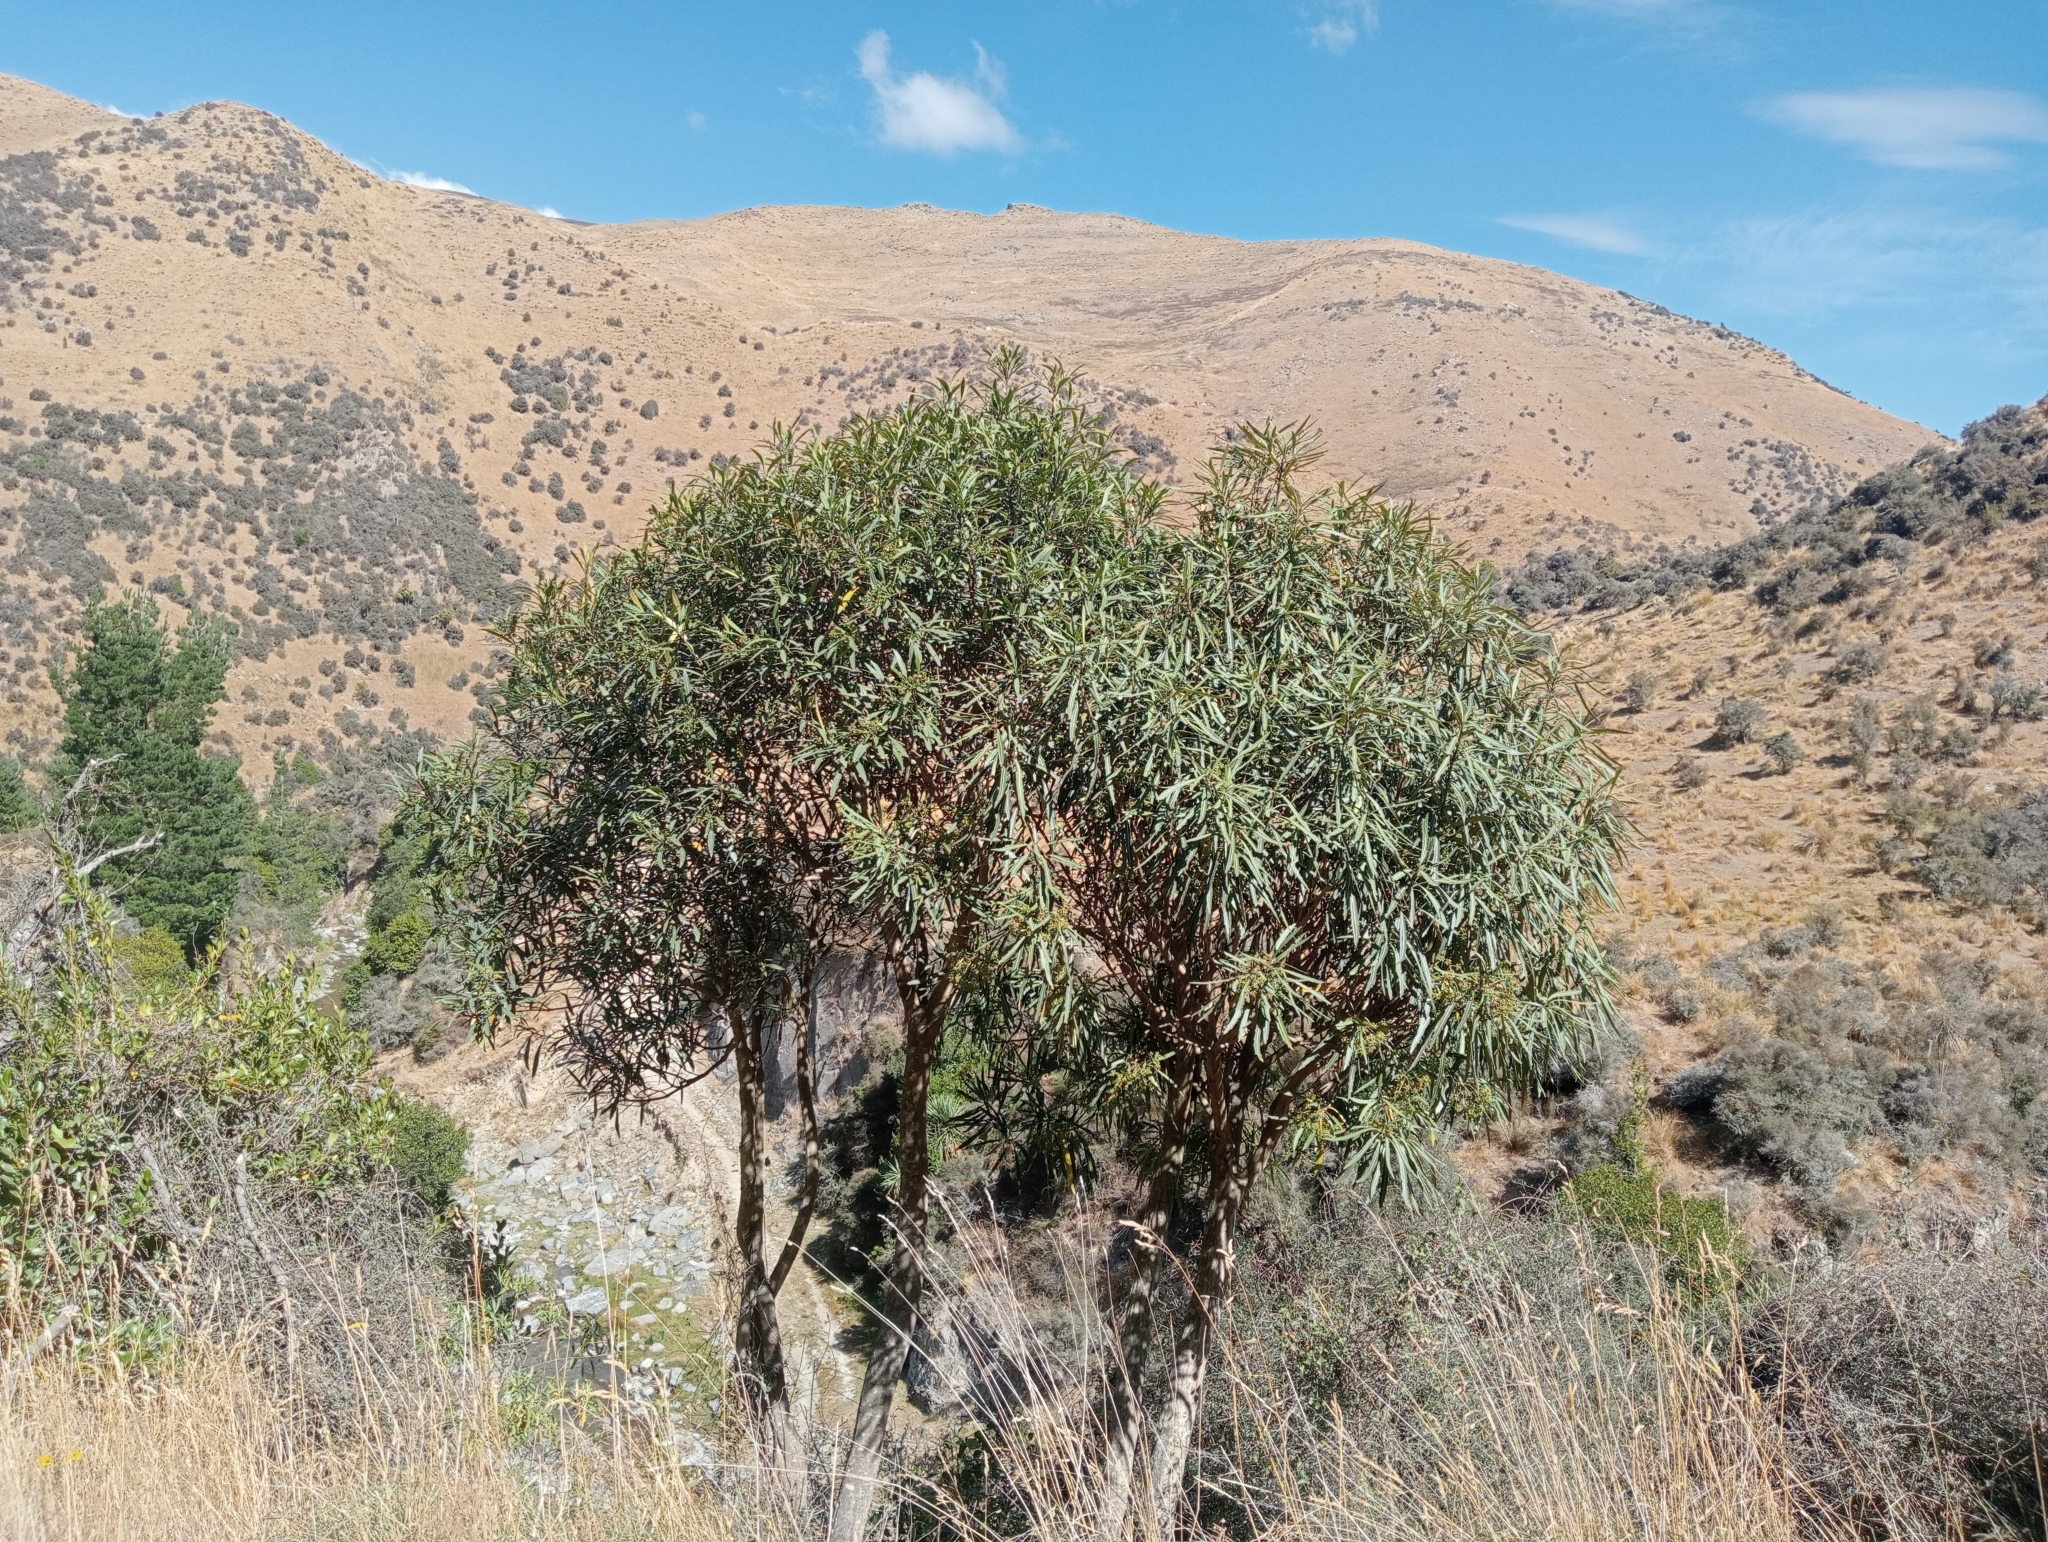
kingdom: Plantae
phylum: Tracheophyta
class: Magnoliopsida
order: Apiales
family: Araliaceae
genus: Pseudopanax
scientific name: Pseudopanax crassifolius
